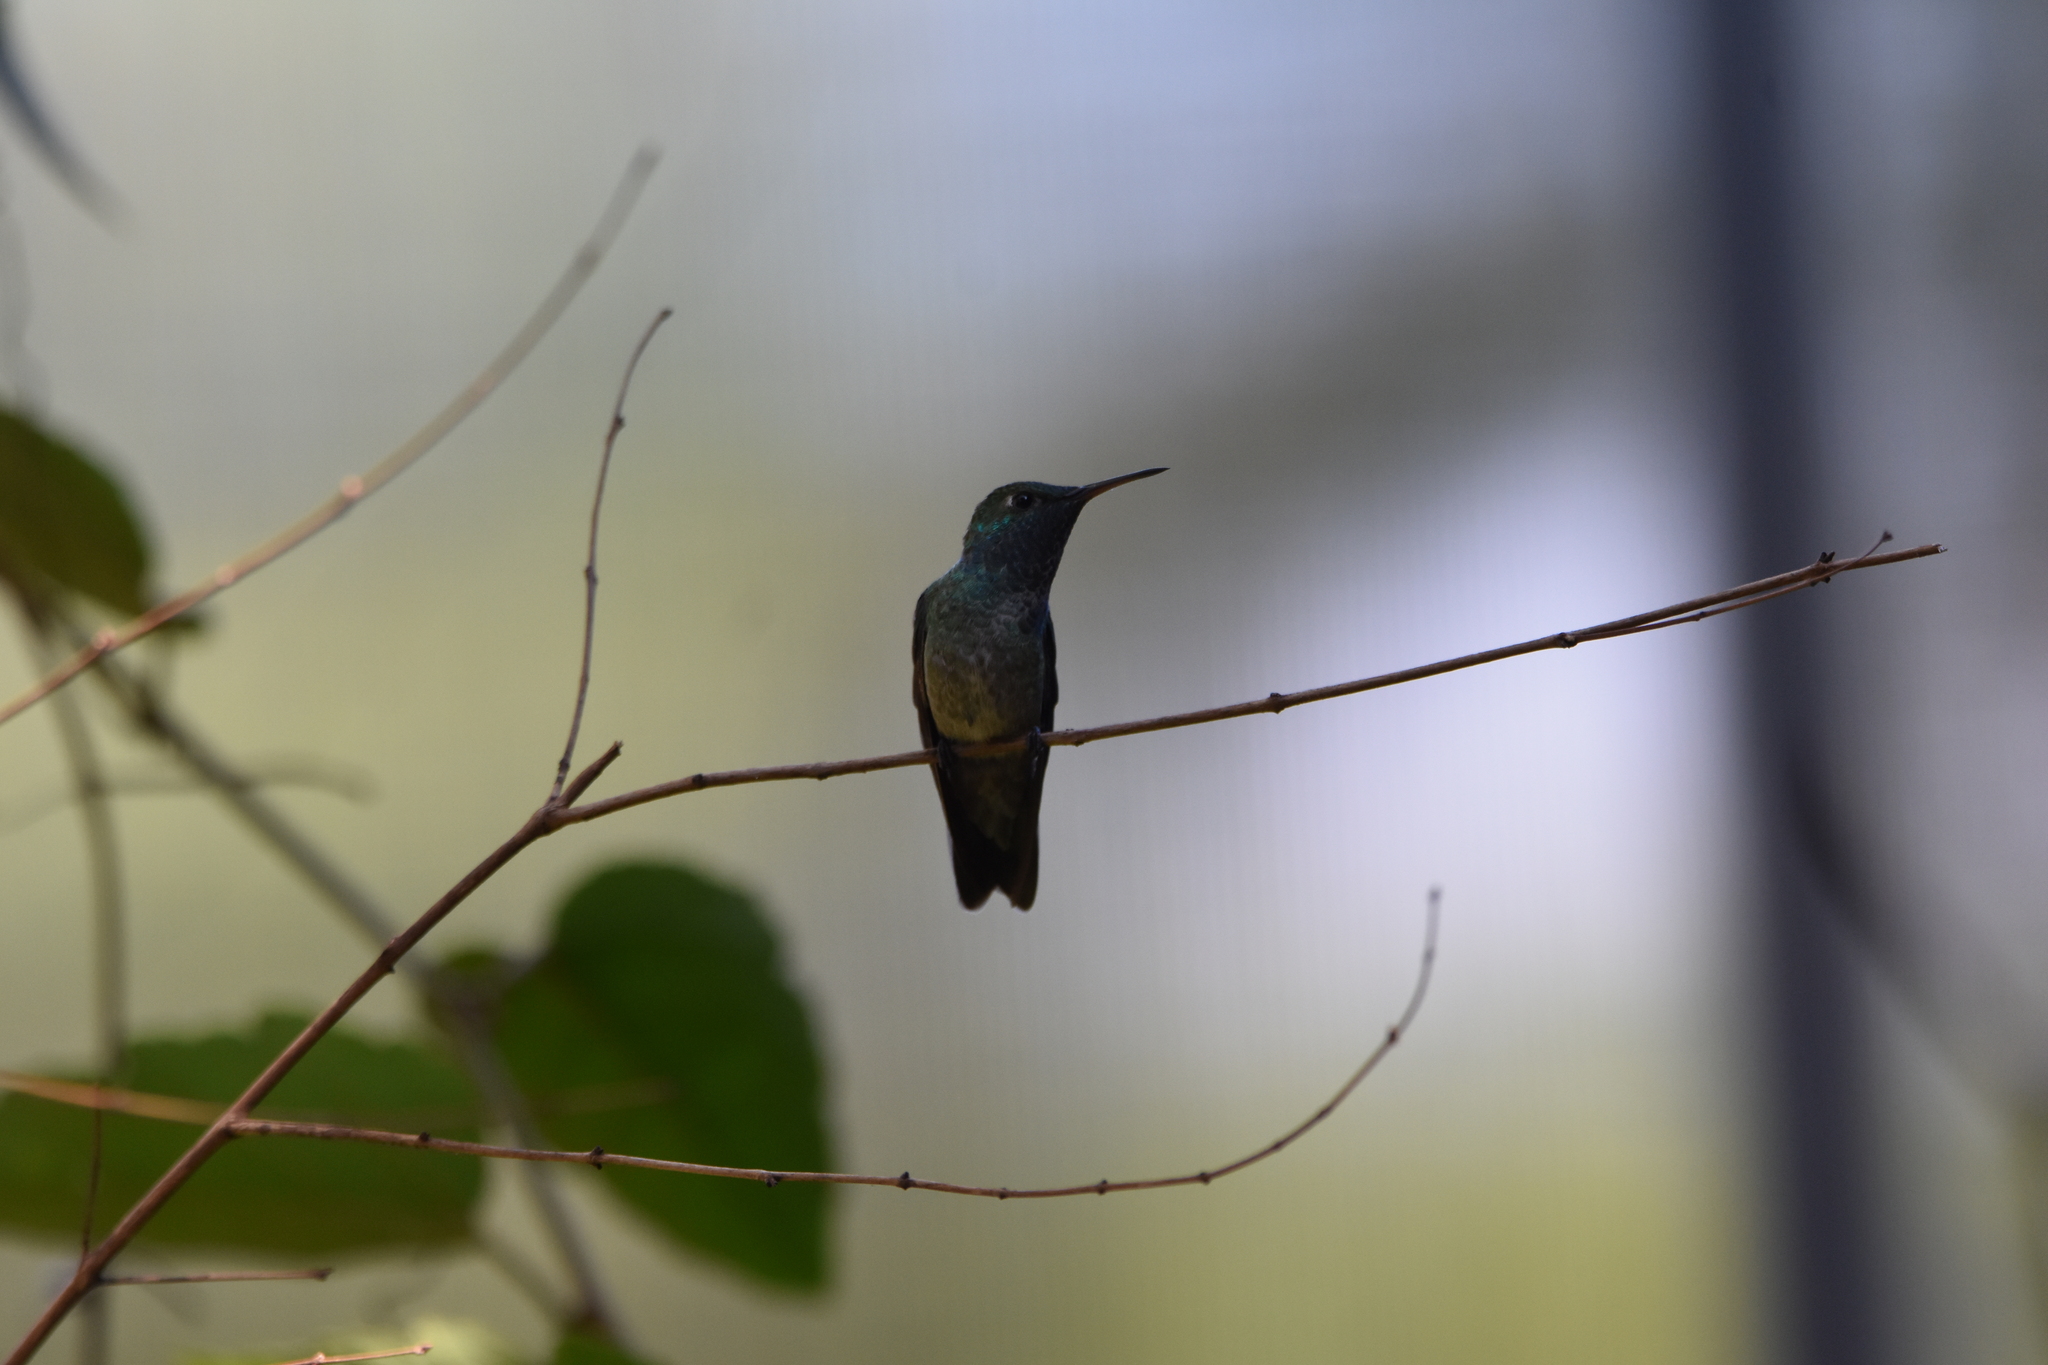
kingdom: Animalia
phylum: Chordata
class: Aves
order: Apodiformes
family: Trochilidae
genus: Chrysuronia
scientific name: Chrysuronia versicolor
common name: Versicolored emerald
